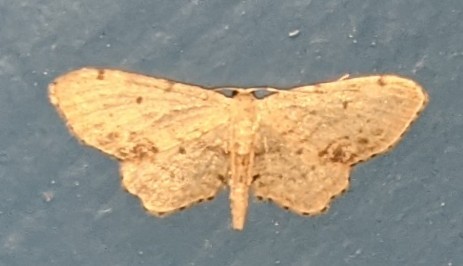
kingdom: Animalia
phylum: Arthropoda
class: Insecta
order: Lepidoptera
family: Geometridae
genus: Idaea
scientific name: Idaea dimidiata
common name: Single-dotted wave
